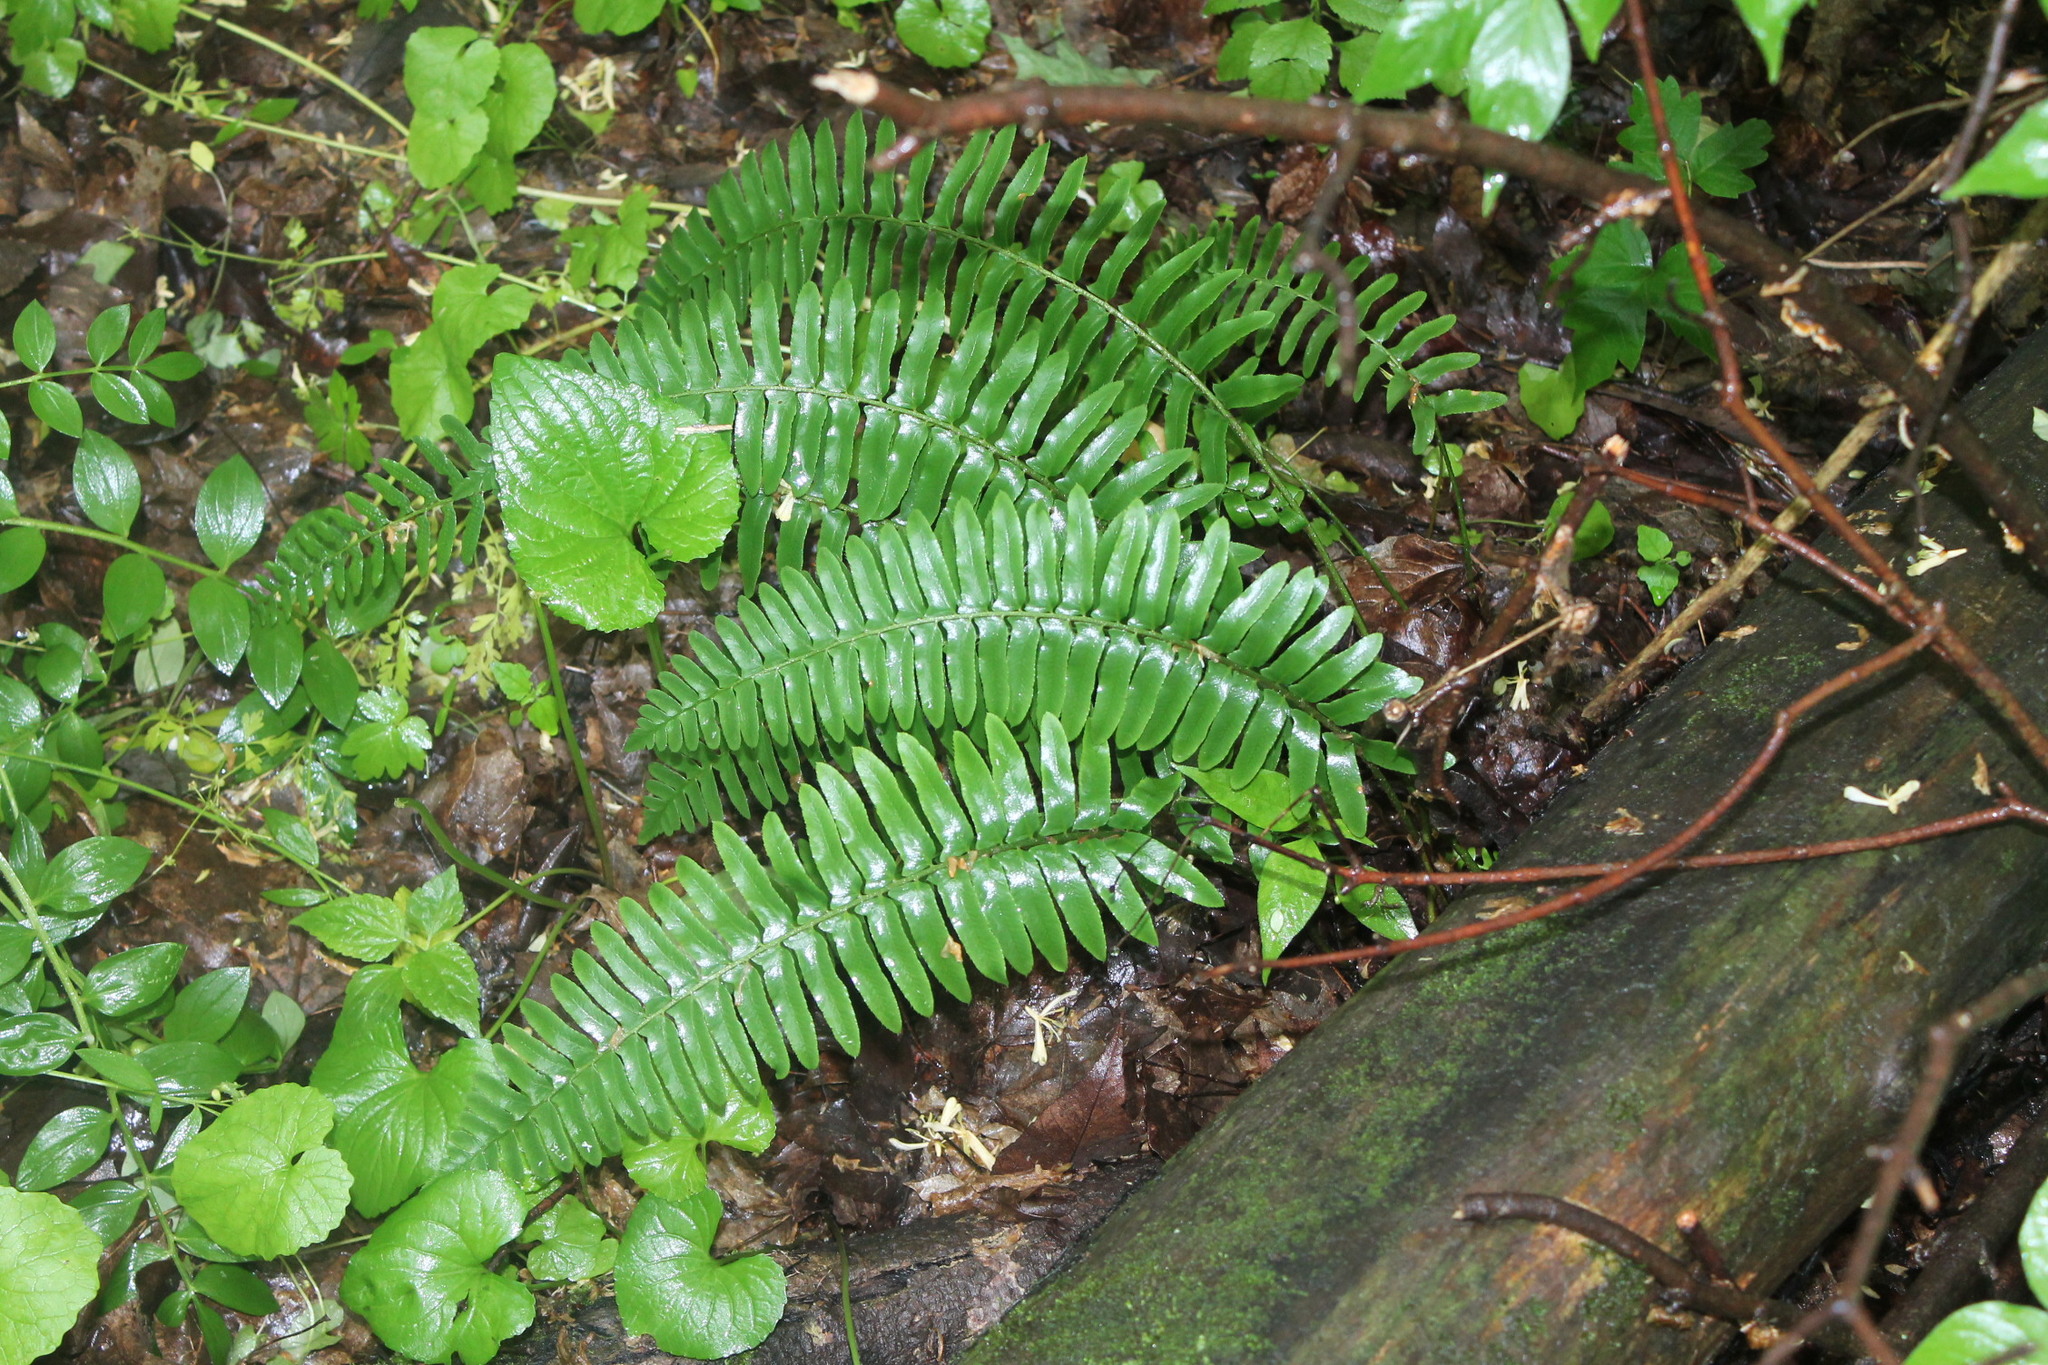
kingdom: Plantae
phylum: Tracheophyta
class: Polypodiopsida
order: Polypodiales
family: Dryopteridaceae
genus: Polystichum
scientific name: Polystichum acrostichoides
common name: Christmas fern
